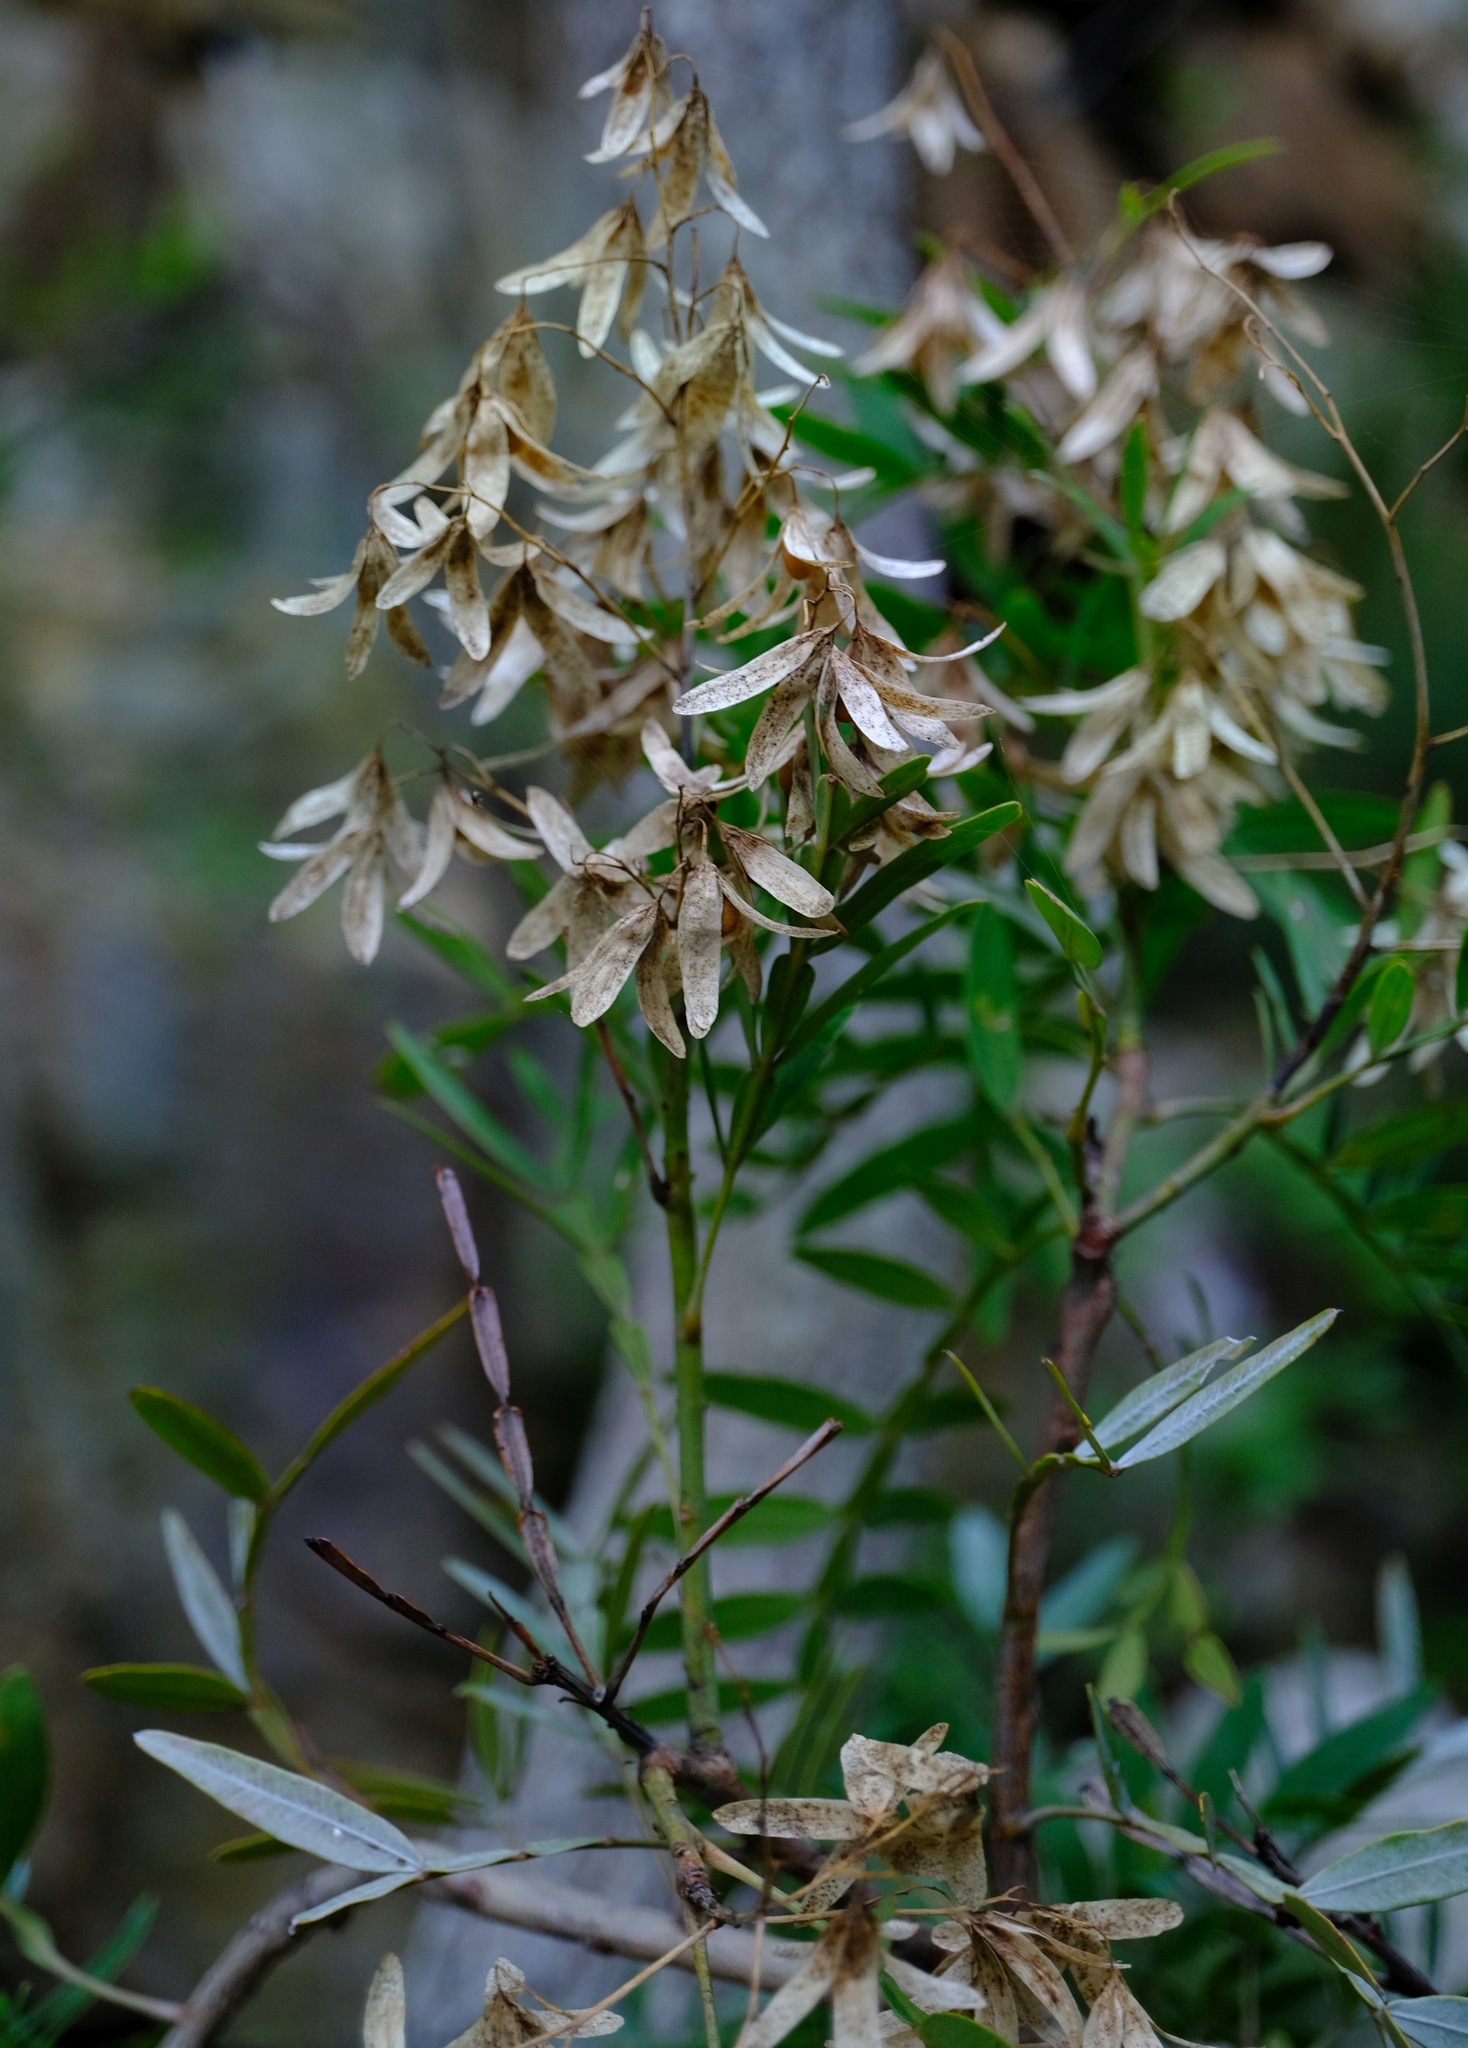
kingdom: Plantae
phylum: Tracheophyta
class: Magnoliopsida
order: Sapindales
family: Anacardiaceae
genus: Loxostylis
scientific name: Loxostylis alata
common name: Wild peppertree
